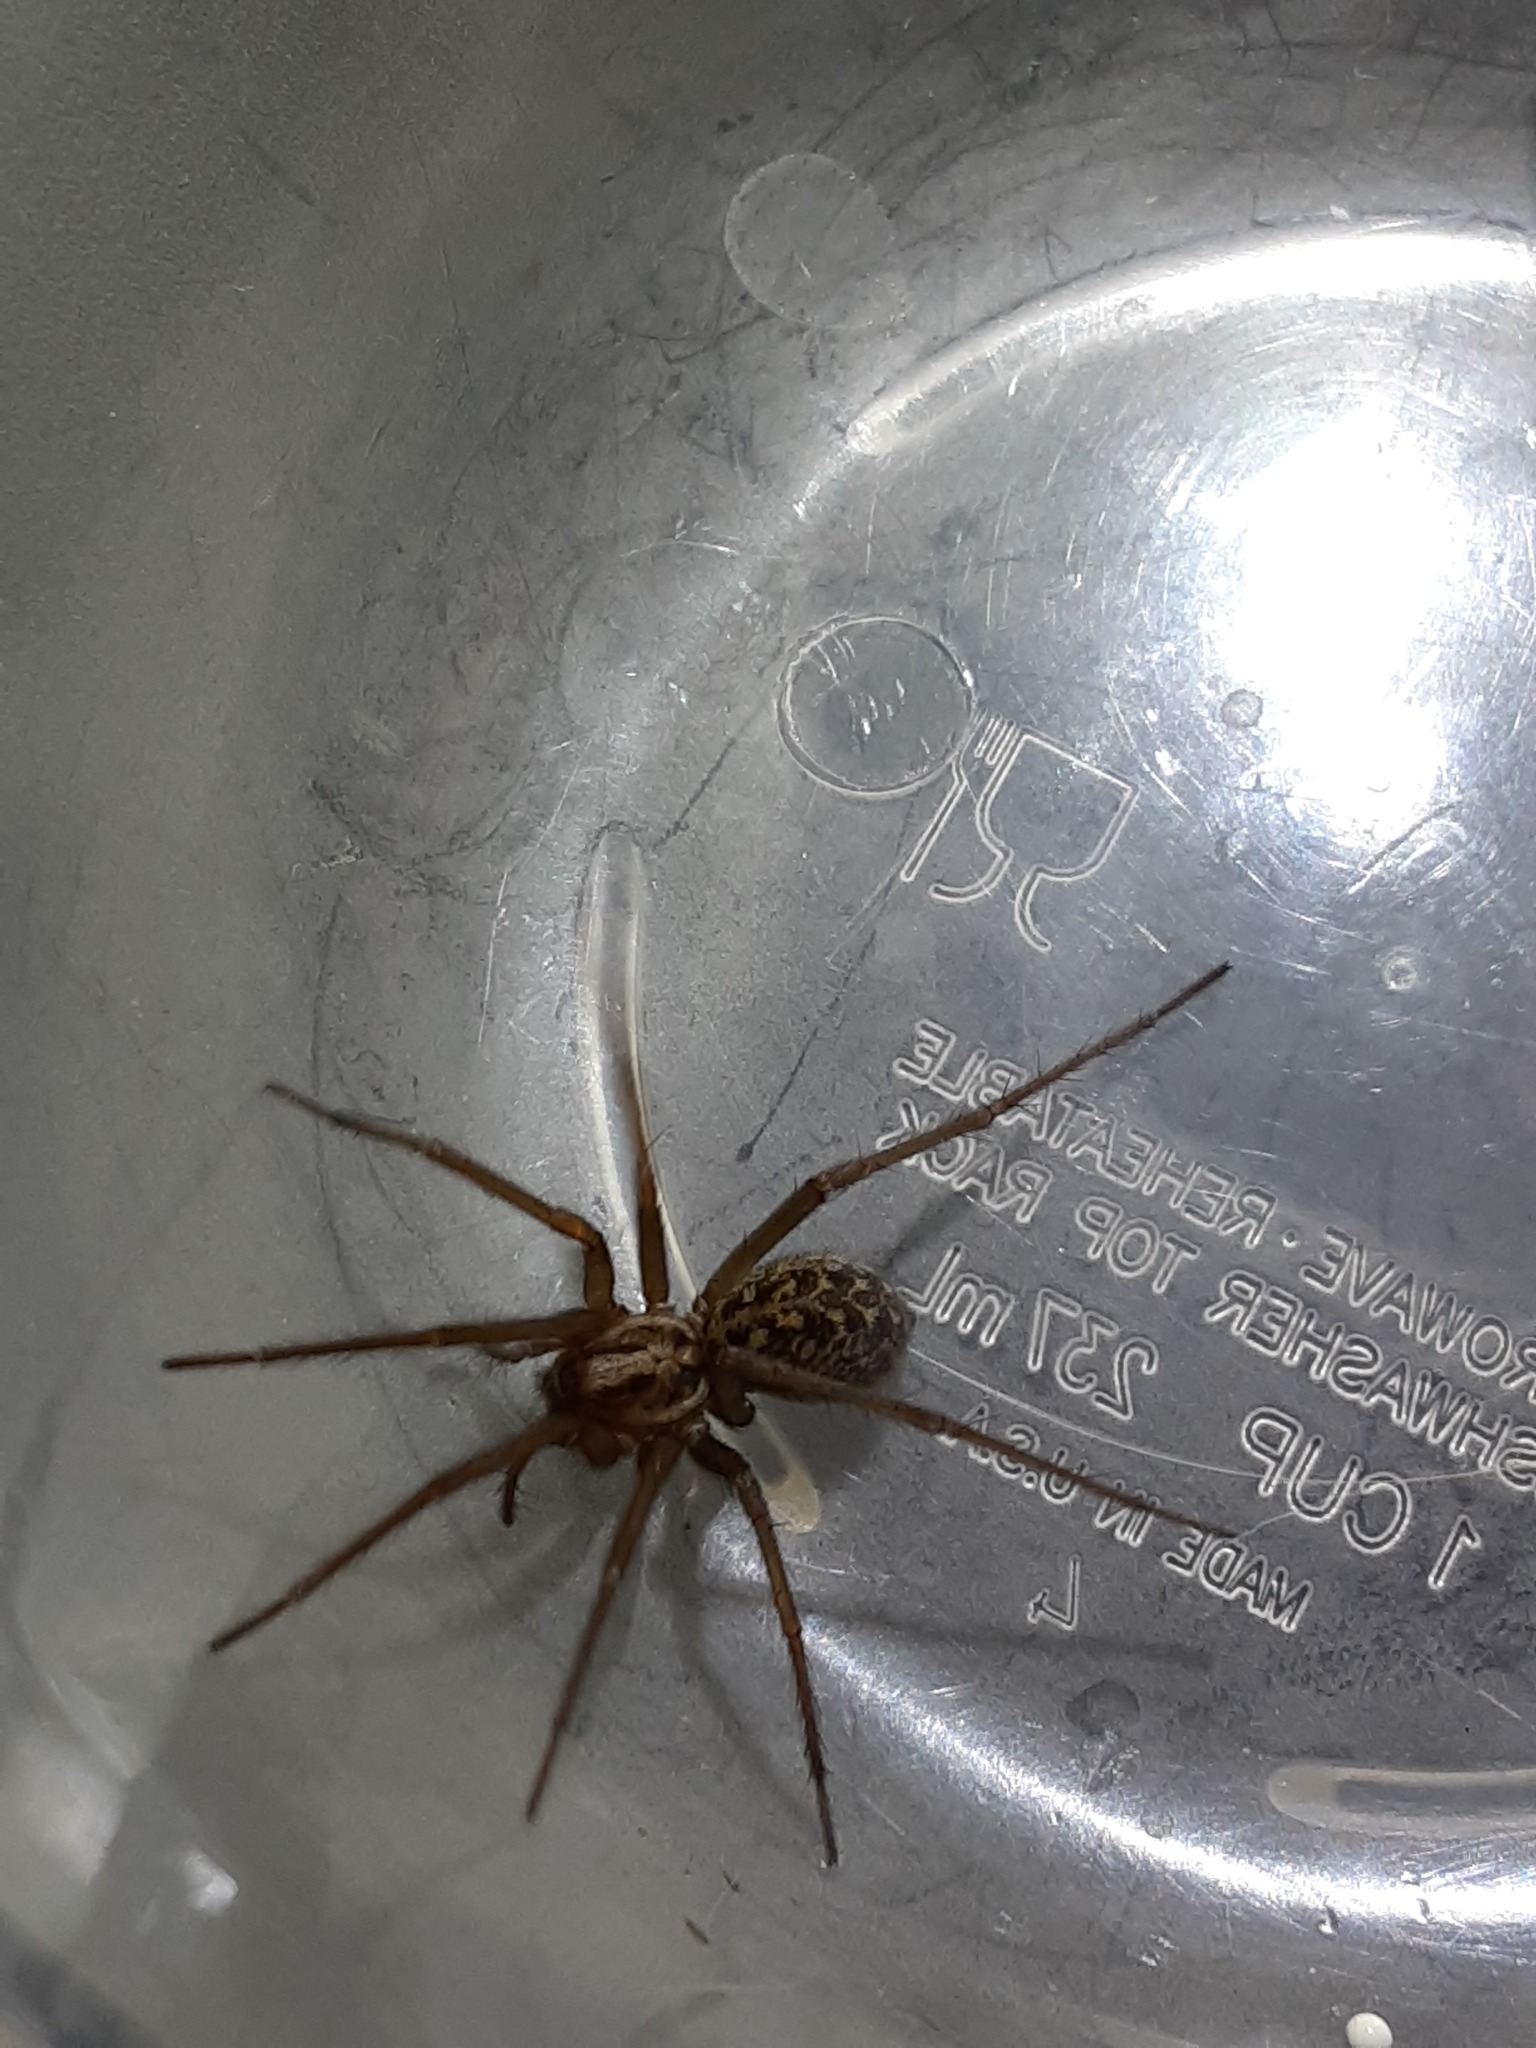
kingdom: Animalia
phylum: Arthropoda
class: Arachnida
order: Araneae
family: Agelenidae
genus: Eratigena
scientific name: Eratigena duellica
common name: Giant house spider
